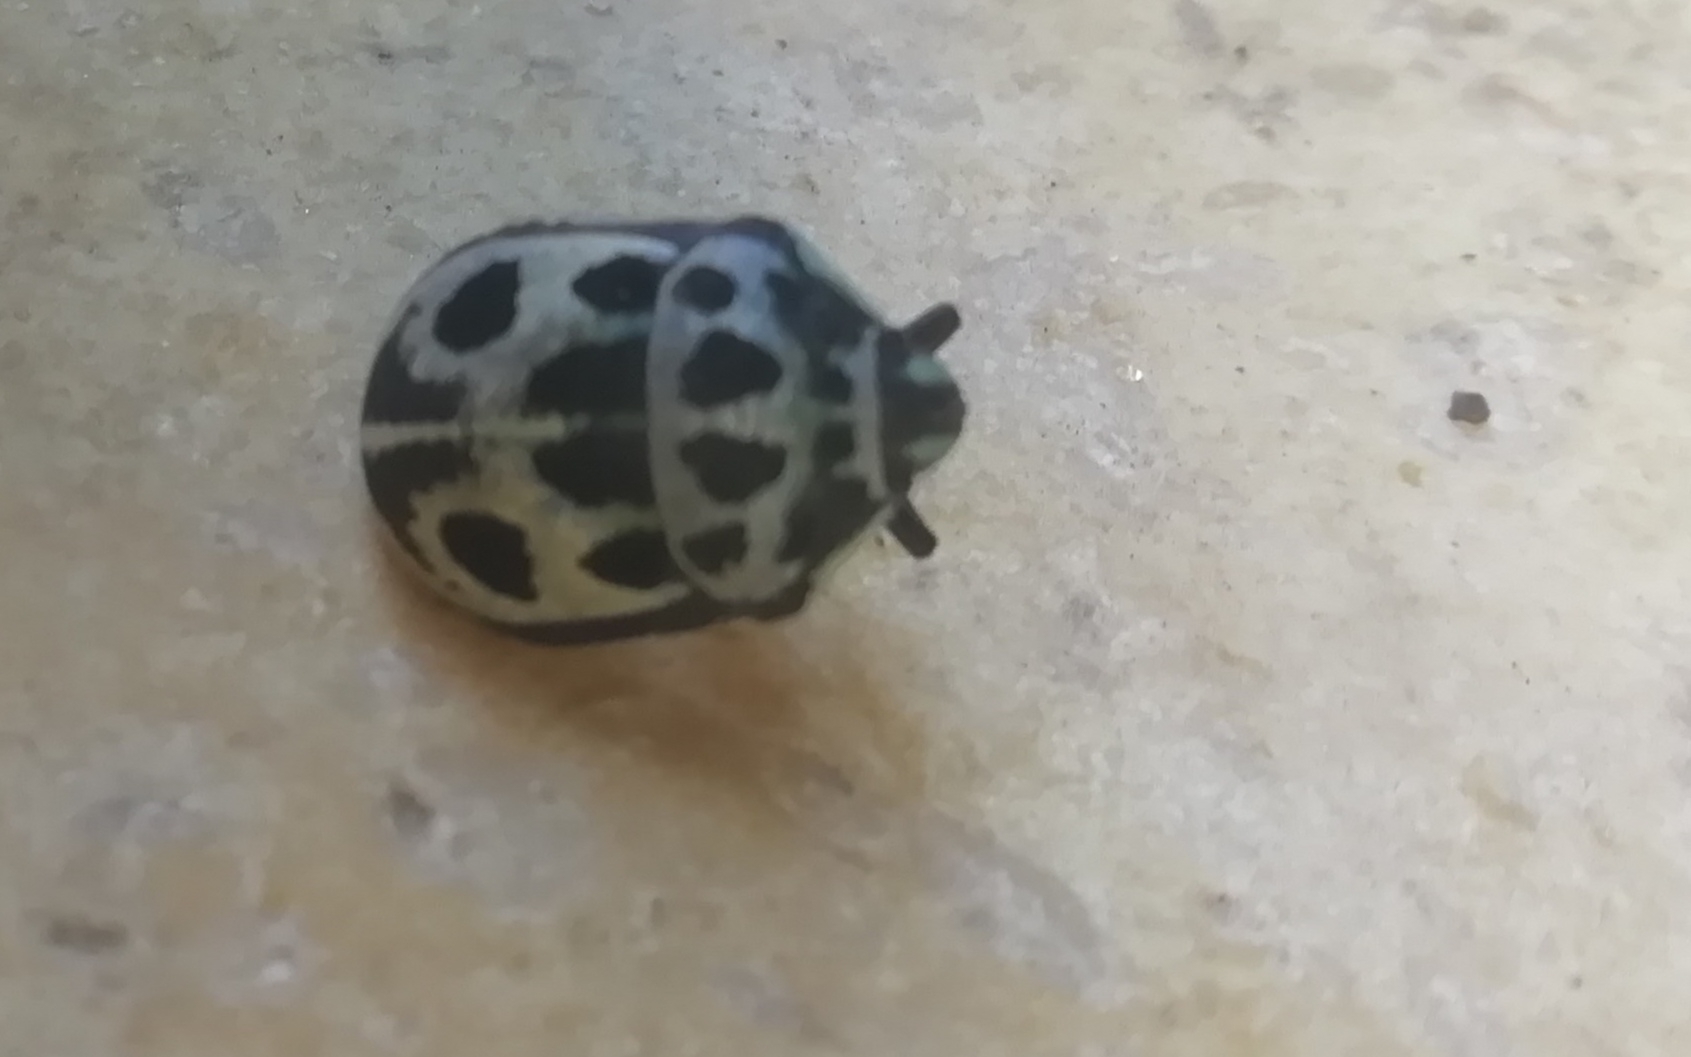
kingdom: Animalia
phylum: Arthropoda
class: Insecta
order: Hemiptera
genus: Deroplax
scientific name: Deroplax silphoides
